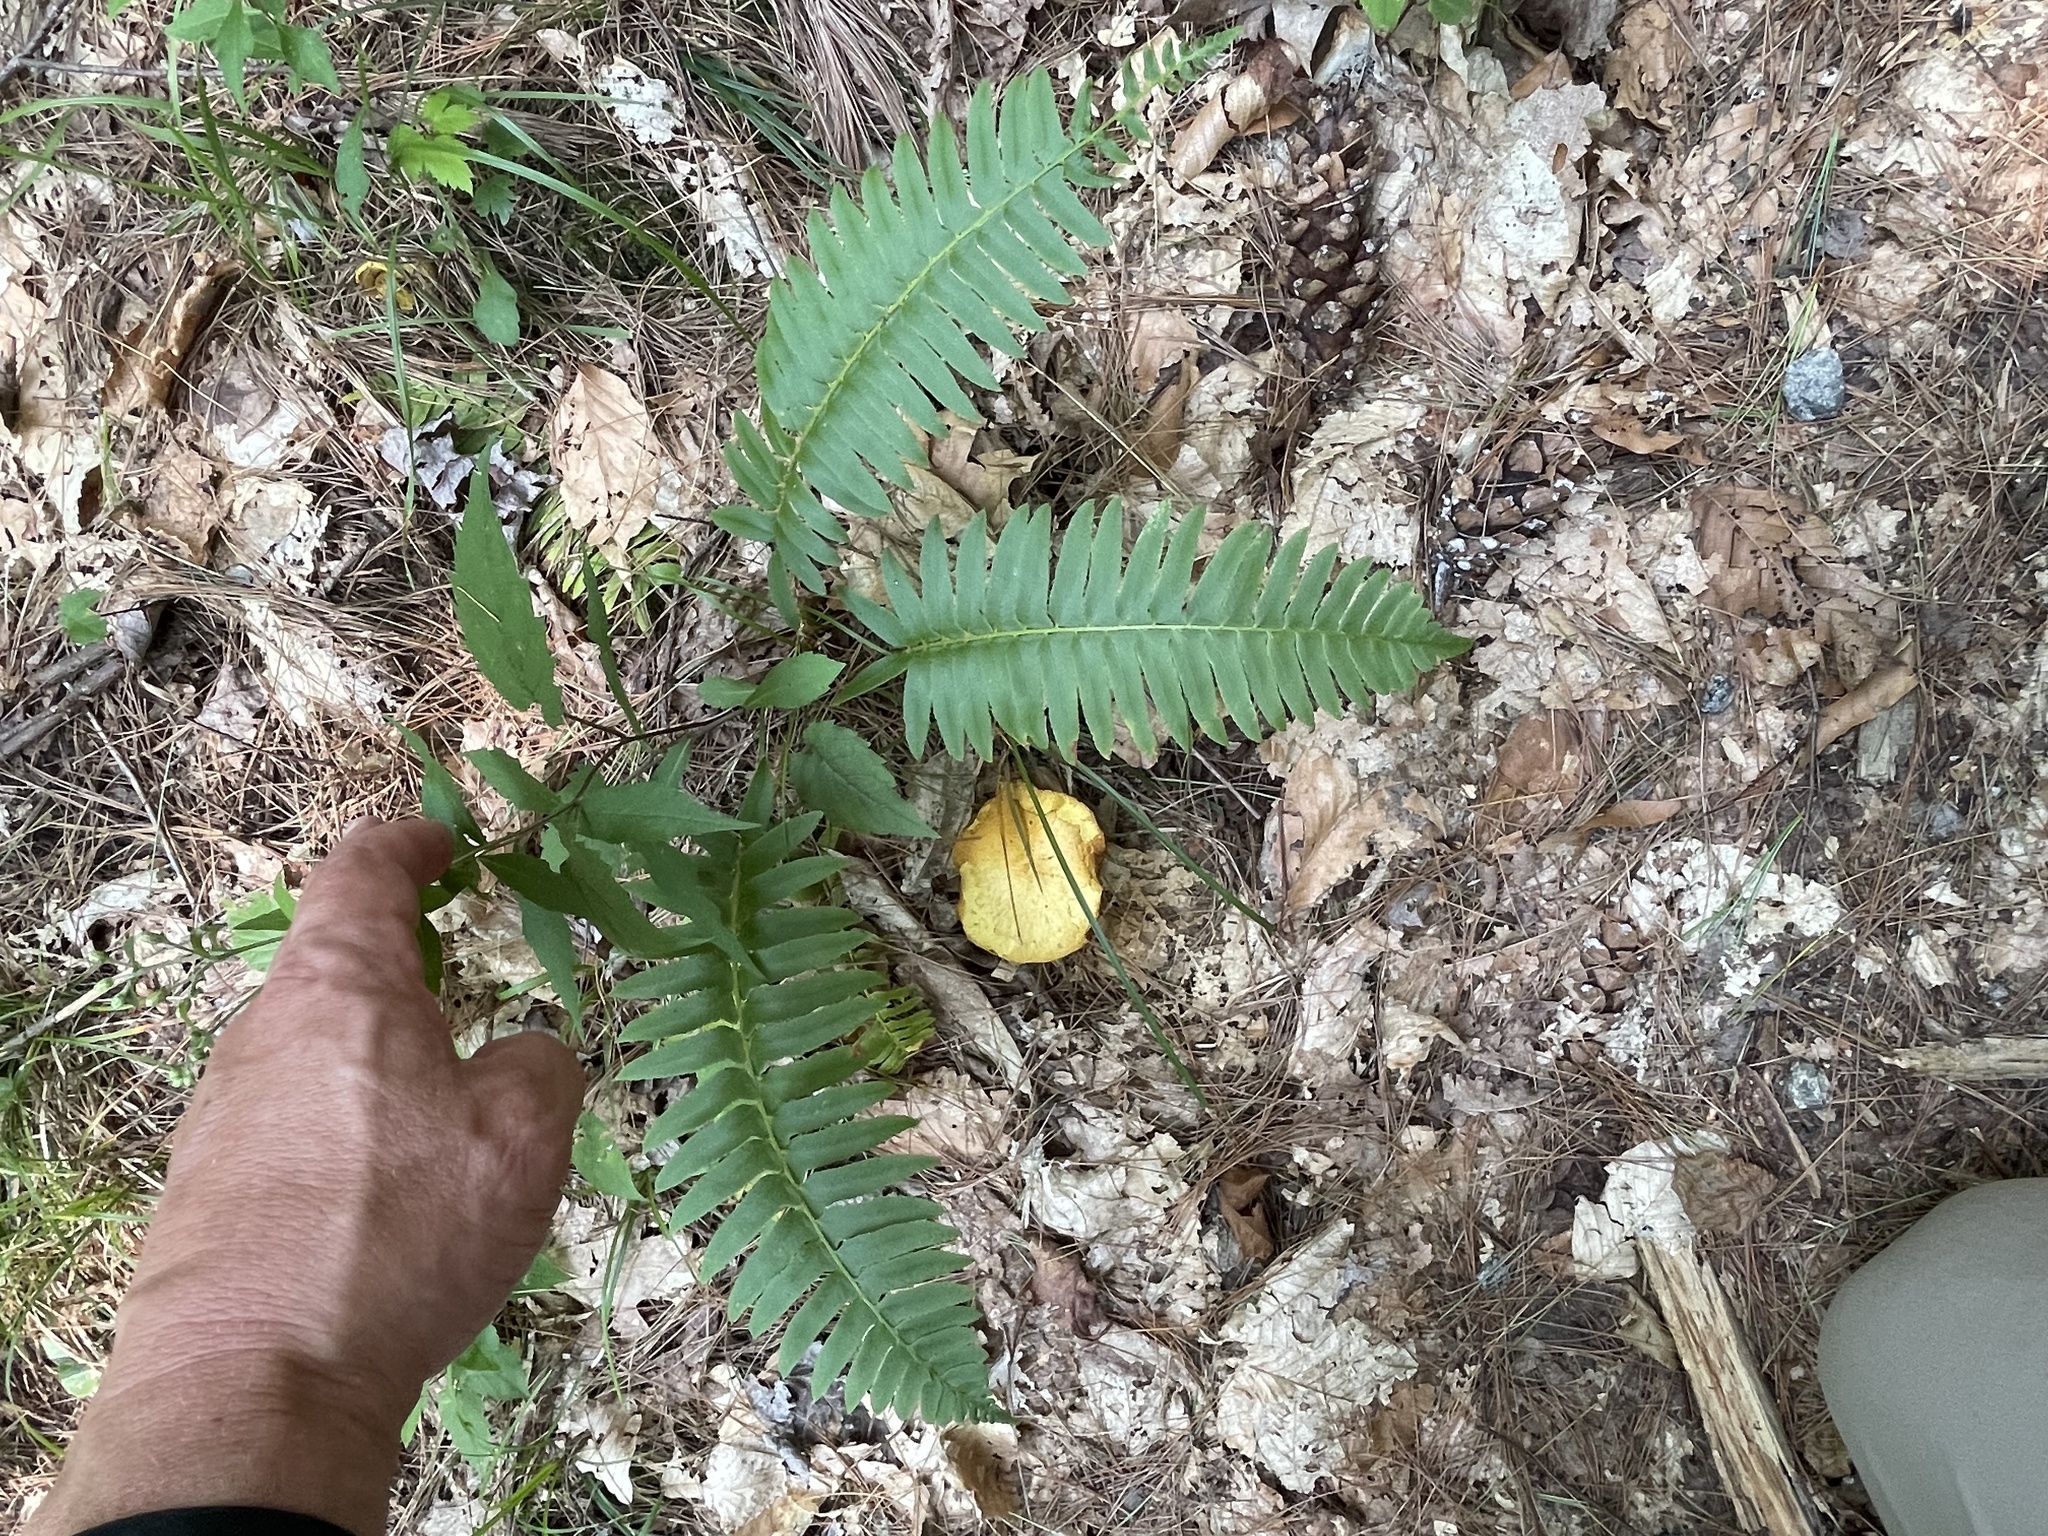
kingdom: Plantae
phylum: Tracheophyta
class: Polypodiopsida
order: Polypodiales
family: Dryopteridaceae
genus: Polystichum
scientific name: Polystichum acrostichoides
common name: Christmas fern
